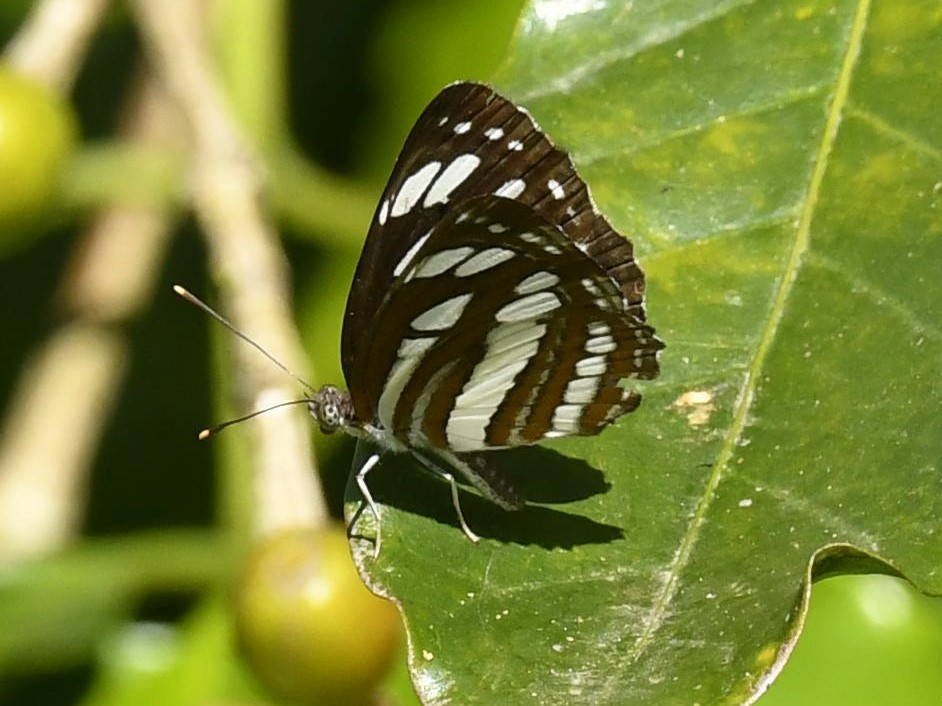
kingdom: Animalia
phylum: Arthropoda
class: Insecta
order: Lepidoptera
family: Nymphalidae
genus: Neptis
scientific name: Neptis hylas
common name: Common sailer
